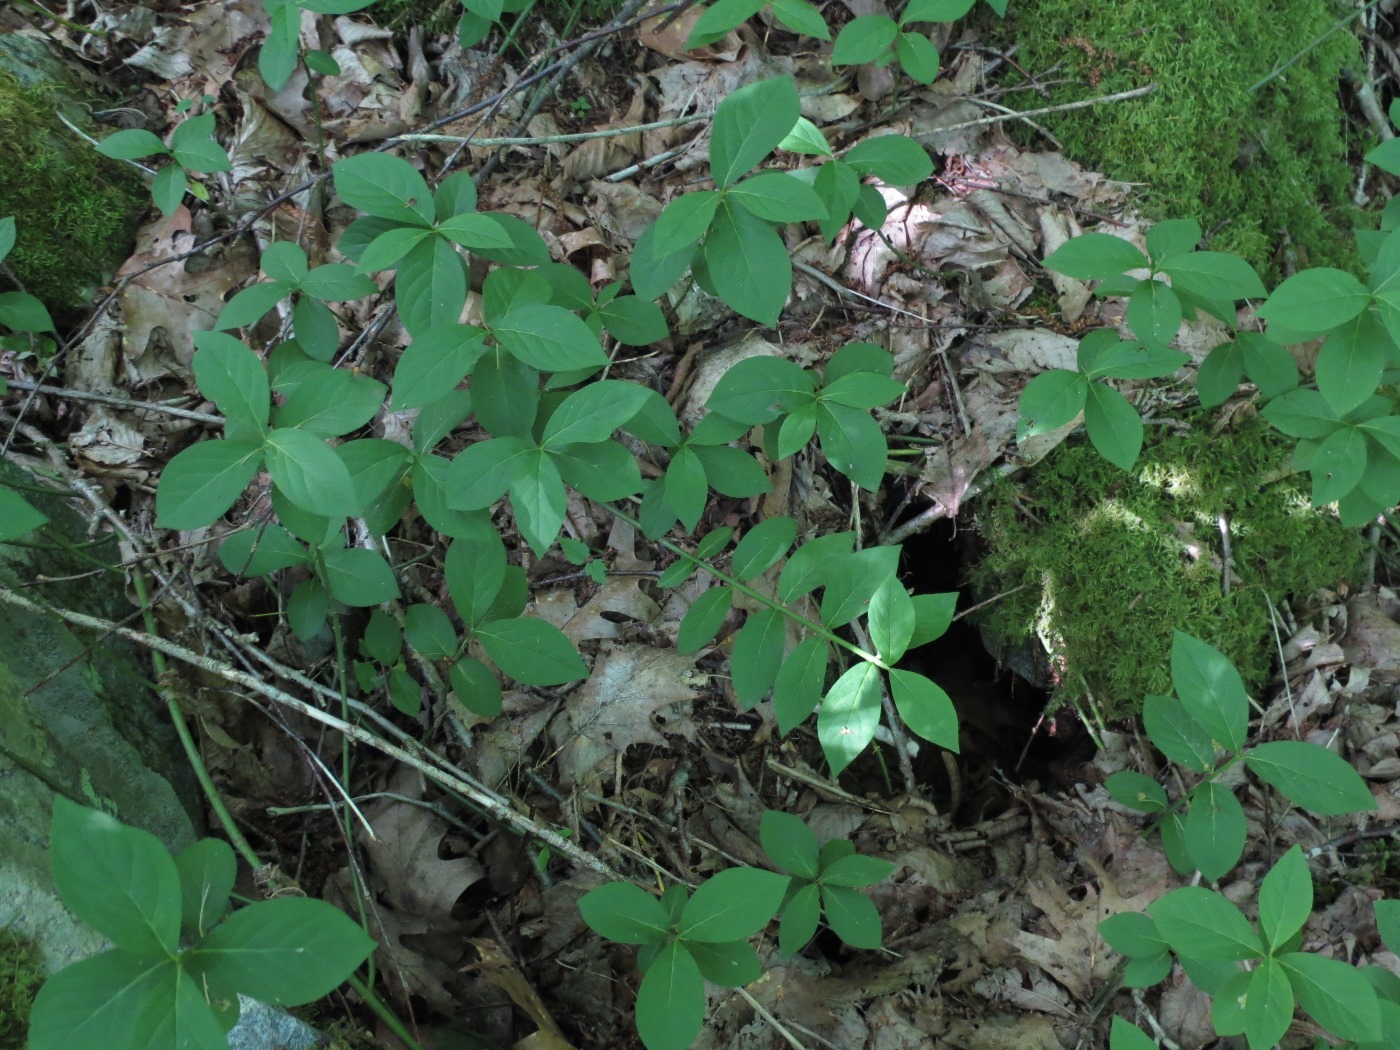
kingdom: Plantae
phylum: Tracheophyta
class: Magnoliopsida
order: Celastrales
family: Celastraceae
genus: Euonymus
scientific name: Euonymus obovatus
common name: Running strawberry-bush
